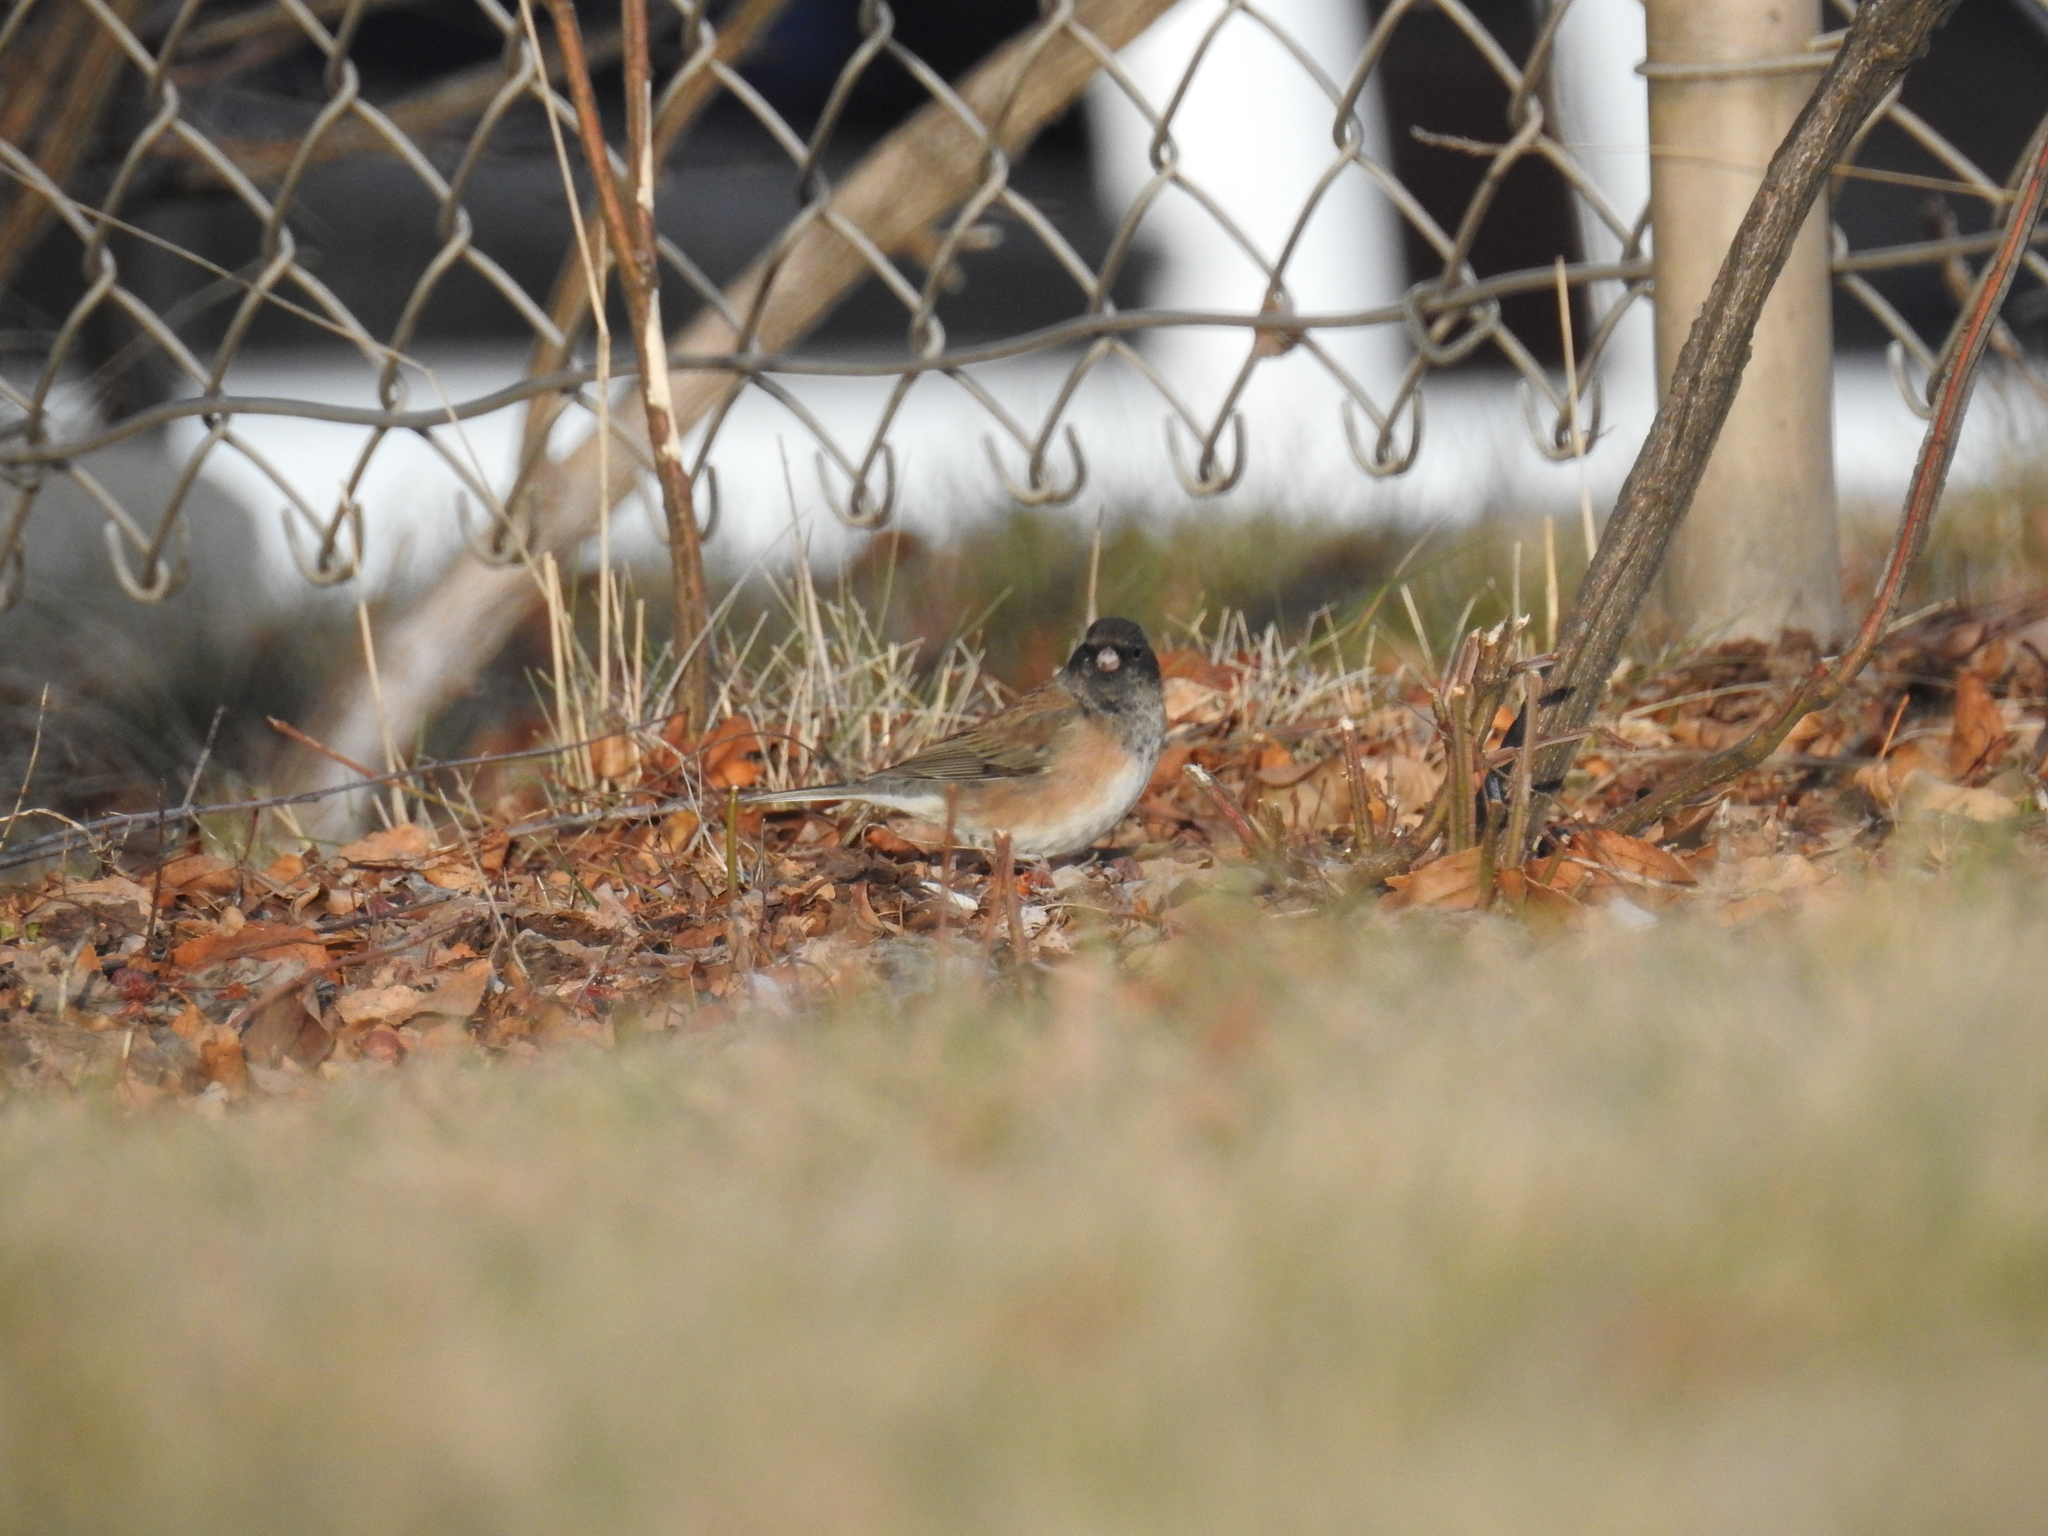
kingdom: Animalia
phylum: Chordata
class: Aves
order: Passeriformes
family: Passerellidae
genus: Junco
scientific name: Junco hyemalis
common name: Dark-eyed junco
